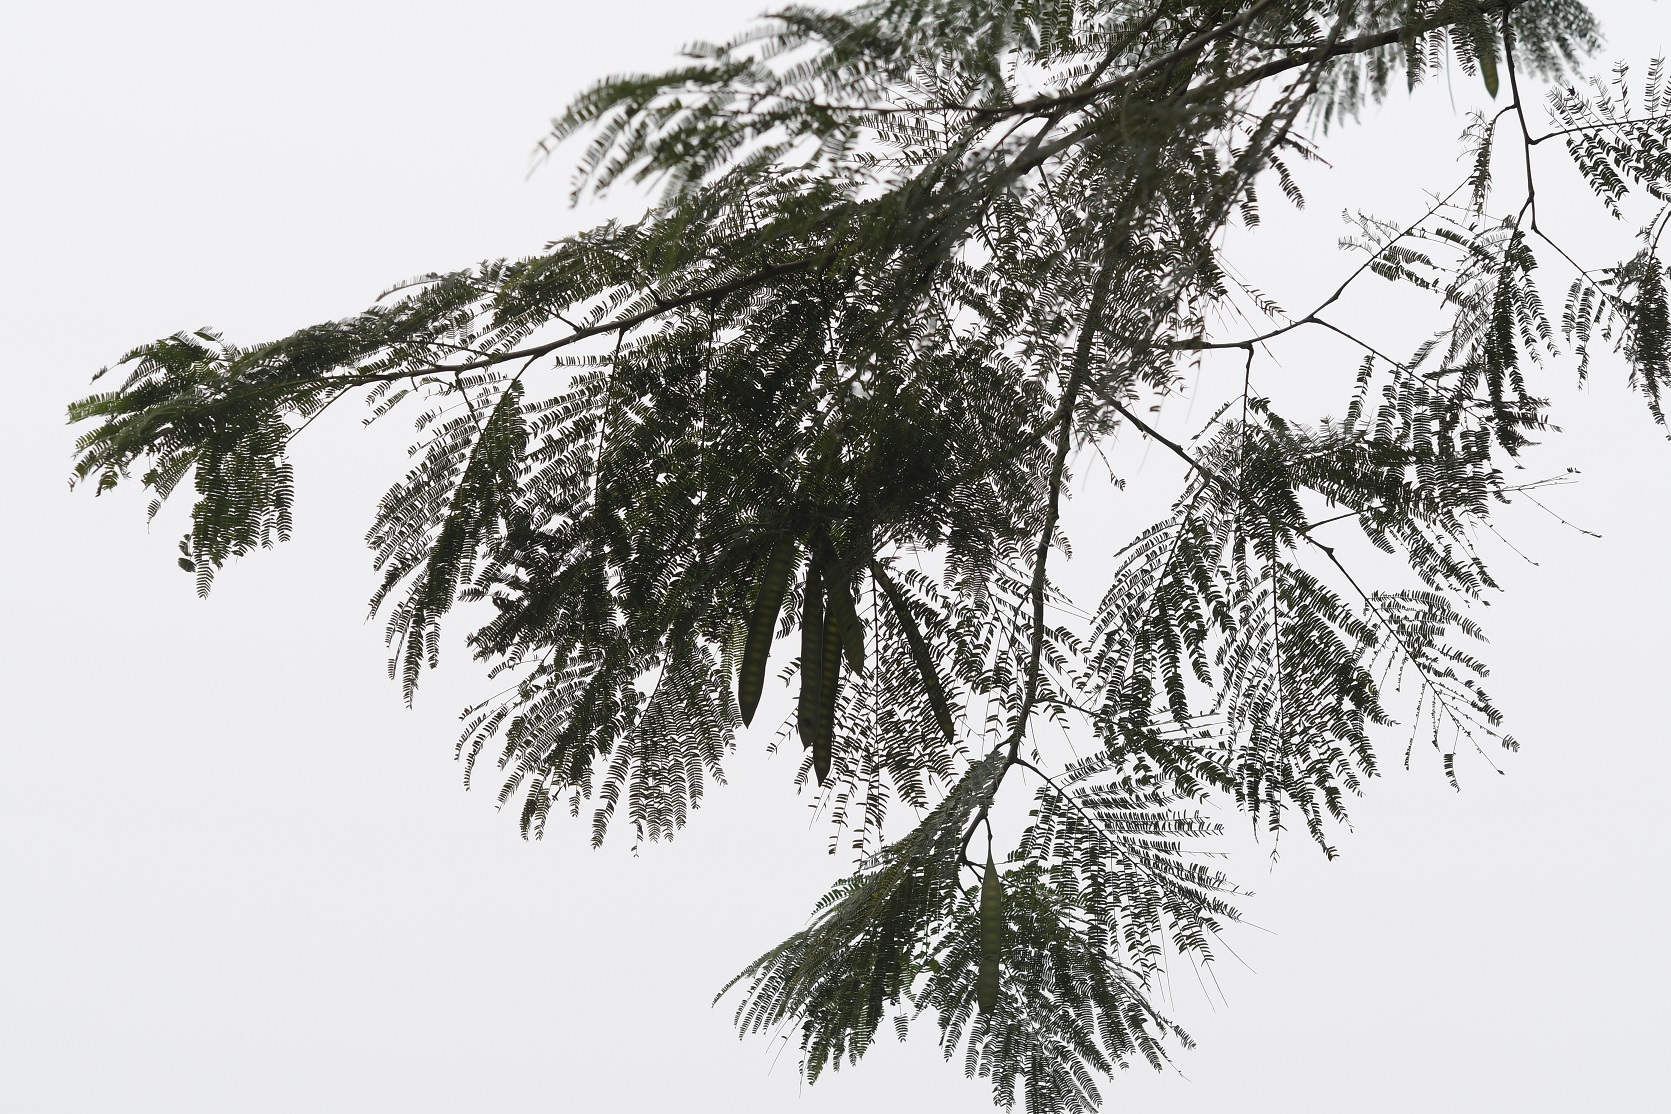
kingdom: Plantae
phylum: Tracheophyta
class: Magnoliopsida
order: Fabales
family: Fabaceae
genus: Leucaena
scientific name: Leucaena diversifolia
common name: Red leucaena
